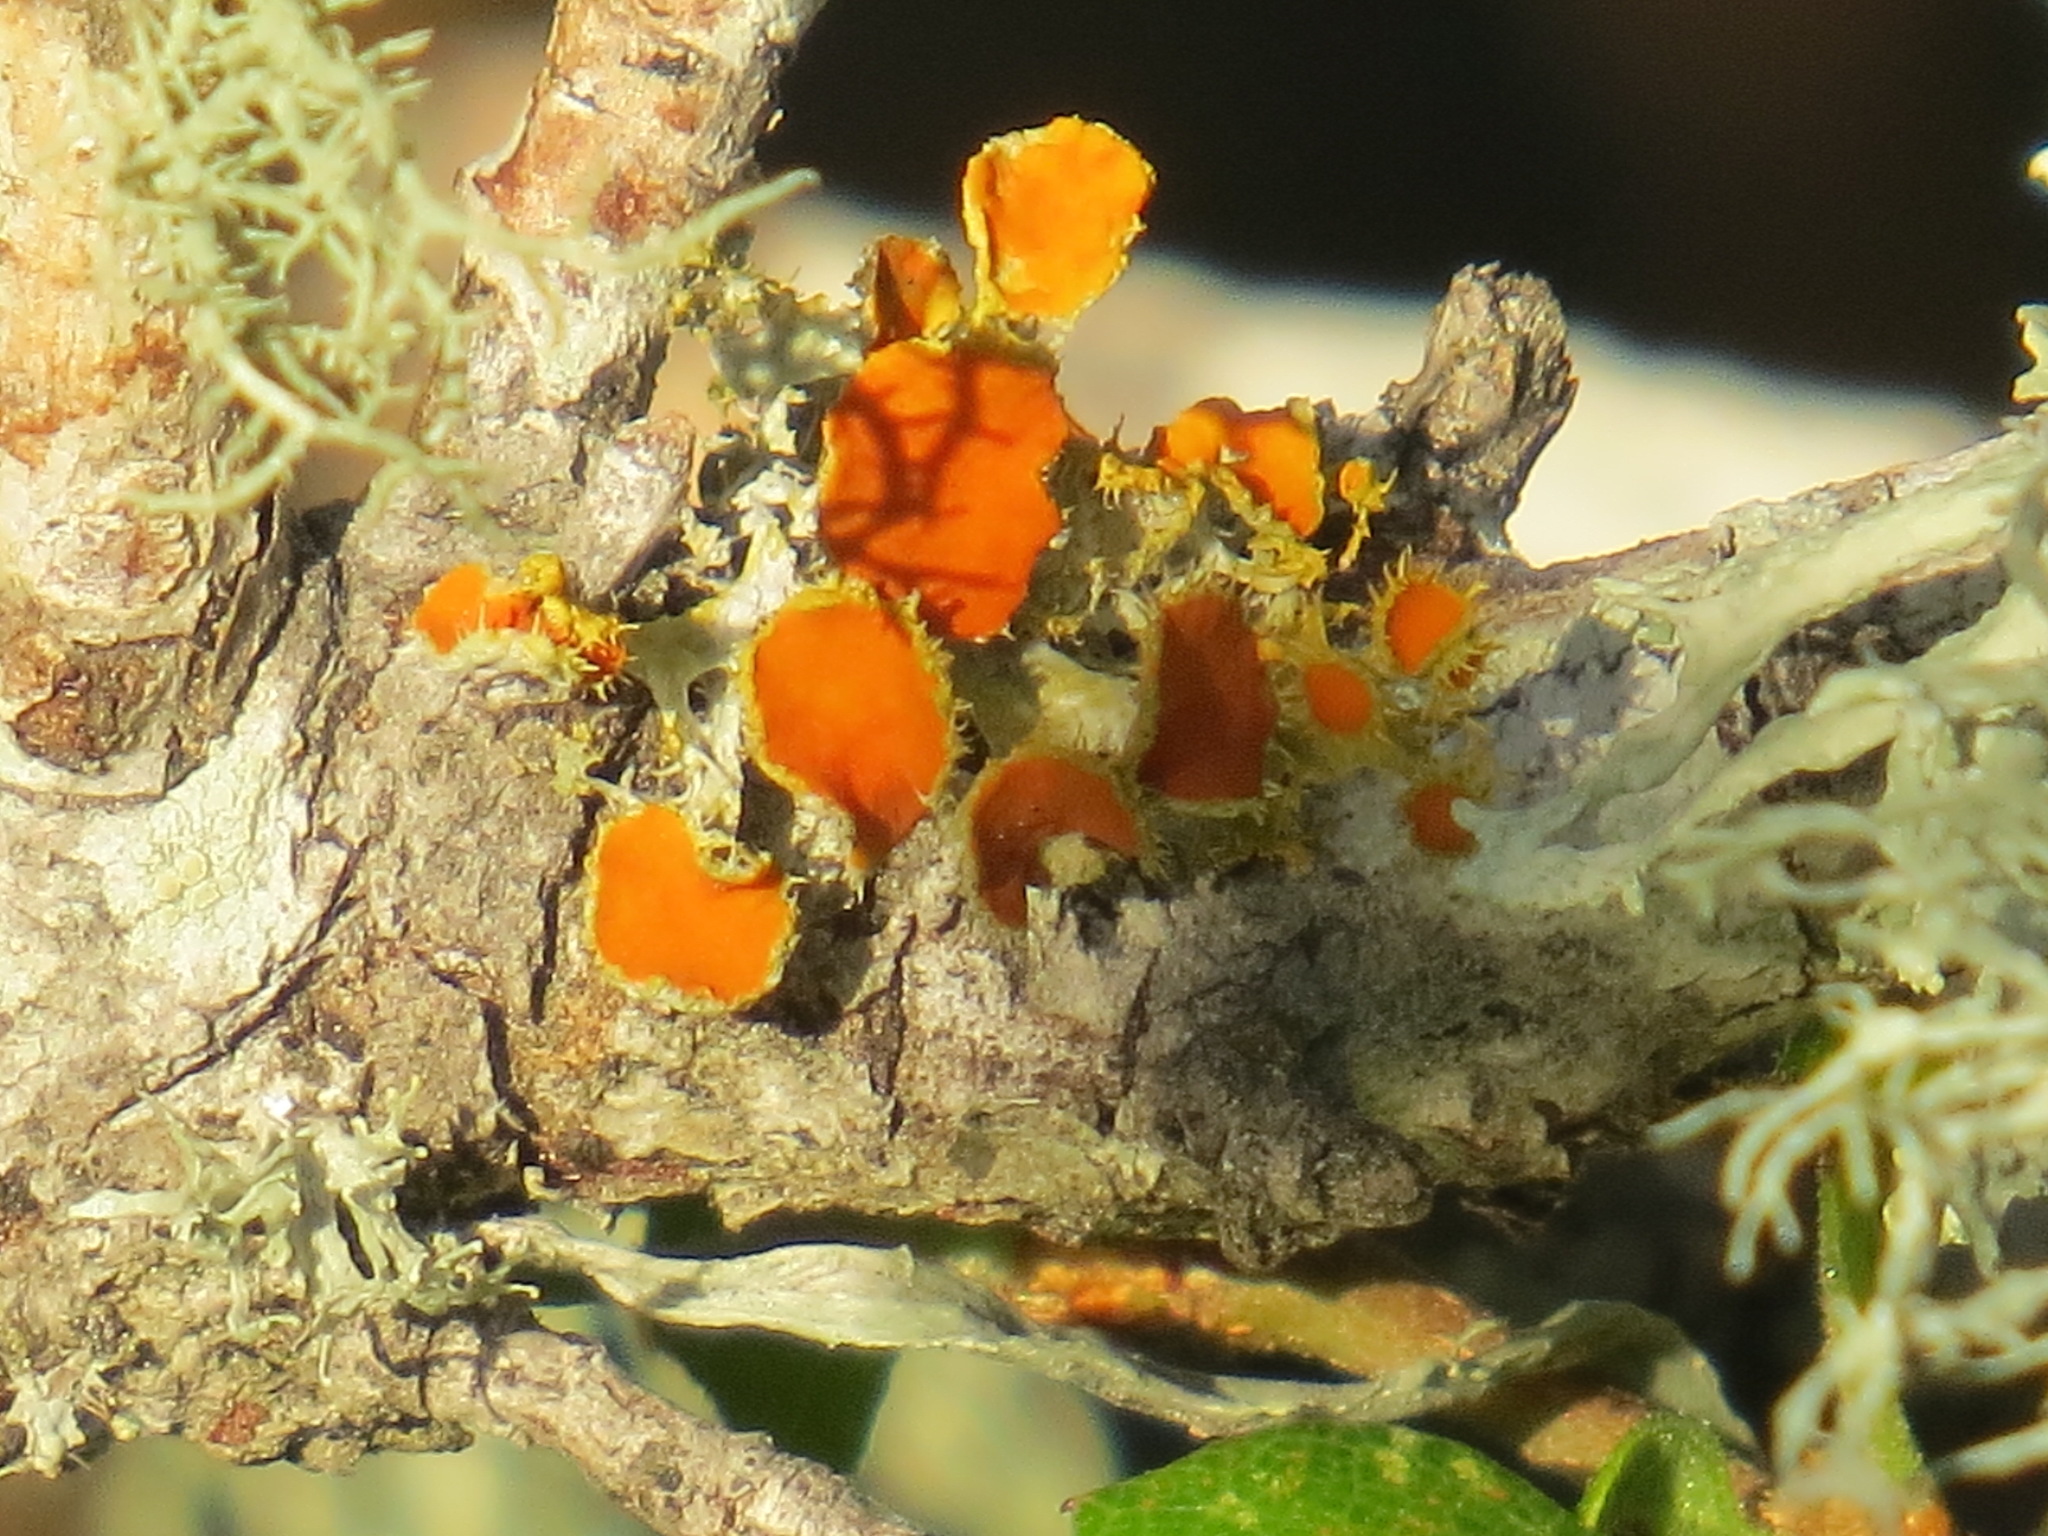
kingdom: Fungi
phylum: Ascomycota
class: Lecanoromycetes
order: Teloschistales
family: Teloschistaceae
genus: Niorma
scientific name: Niorma chrysophthalma
